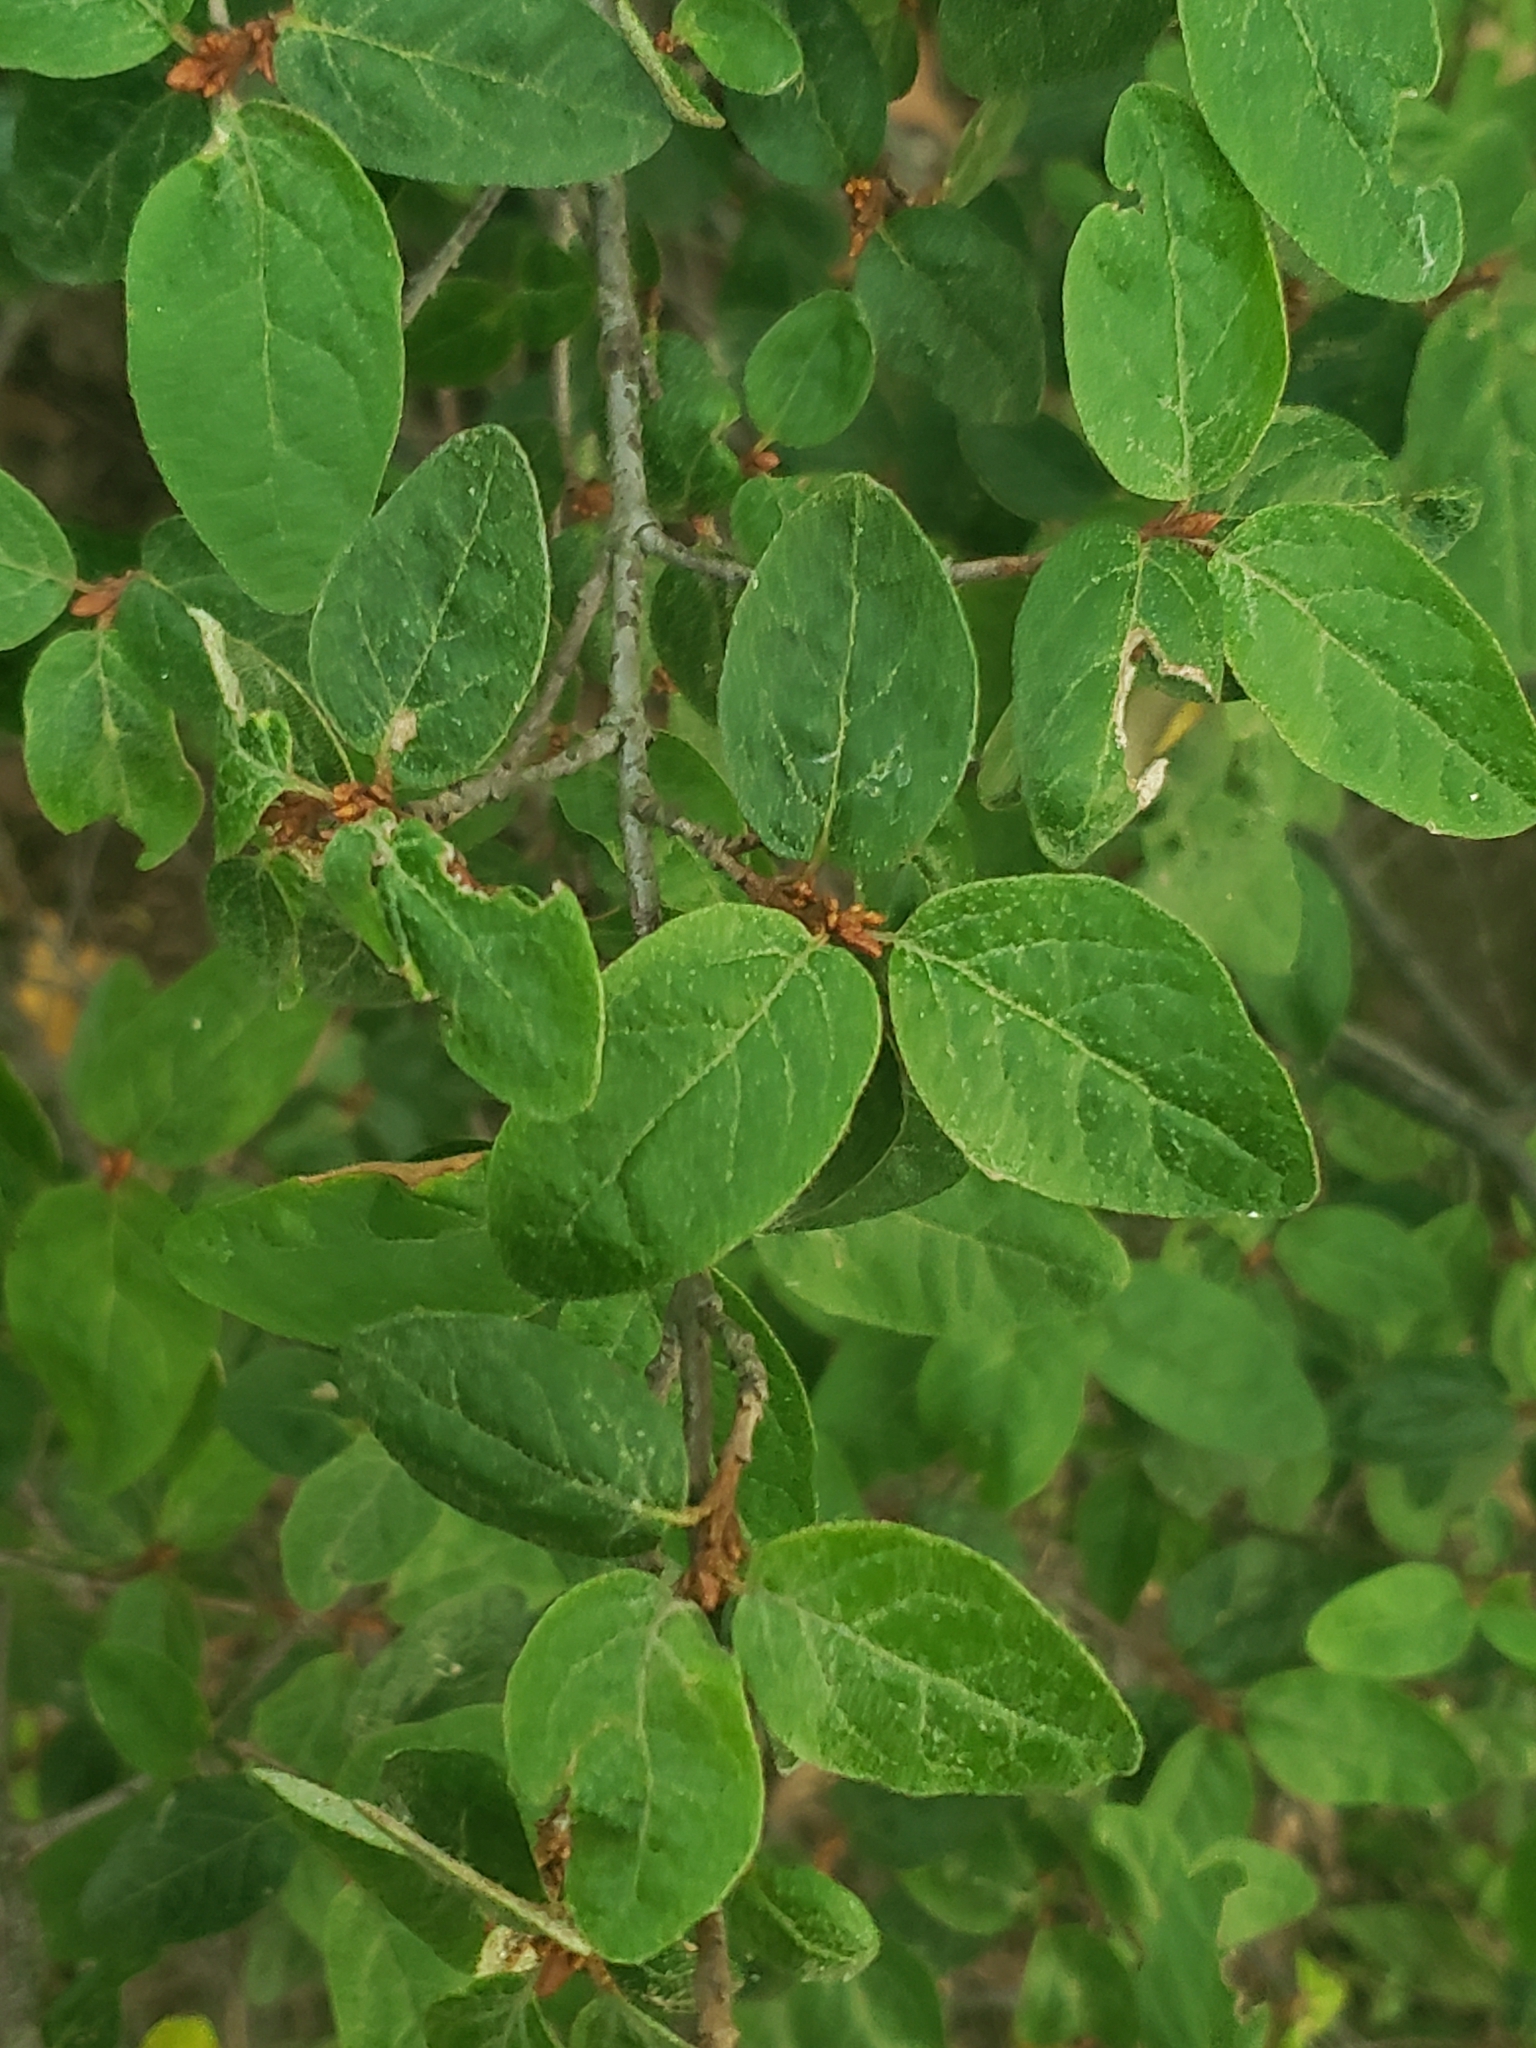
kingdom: Plantae
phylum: Tracheophyta
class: Magnoliopsida
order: Rosales
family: Elaeagnaceae
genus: Shepherdia
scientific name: Shepherdia canadensis
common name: Soapberry
